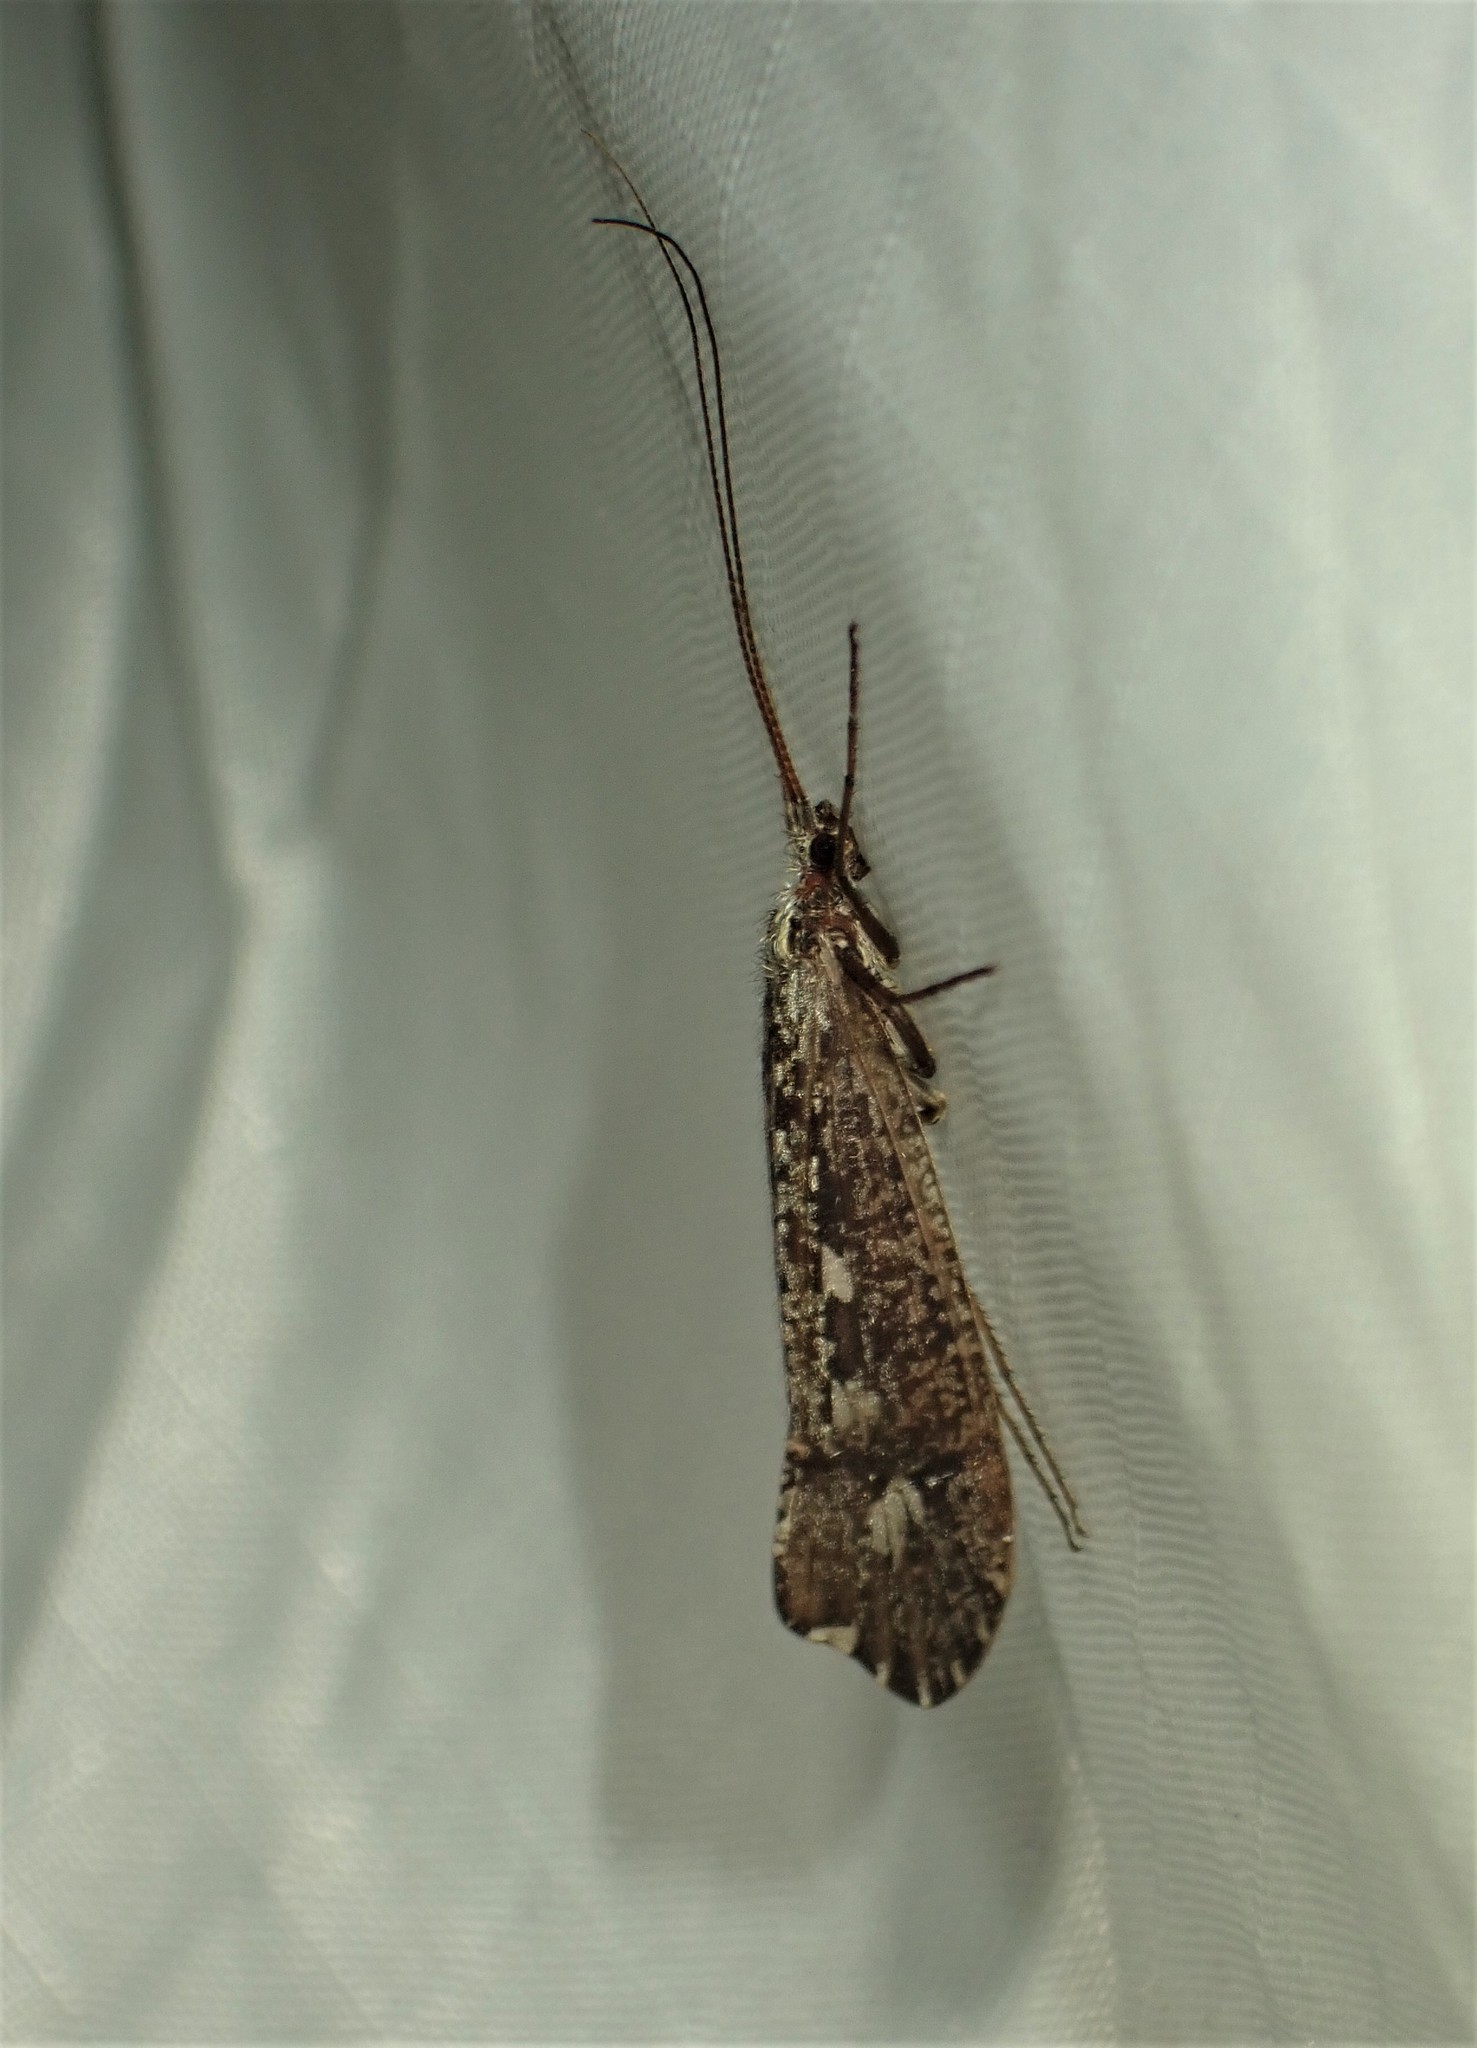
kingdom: Animalia
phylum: Arthropoda
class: Insecta
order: Trichoptera
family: Limnephilidae
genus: Glyphopsyche
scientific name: Glyphopsyche irrorata
